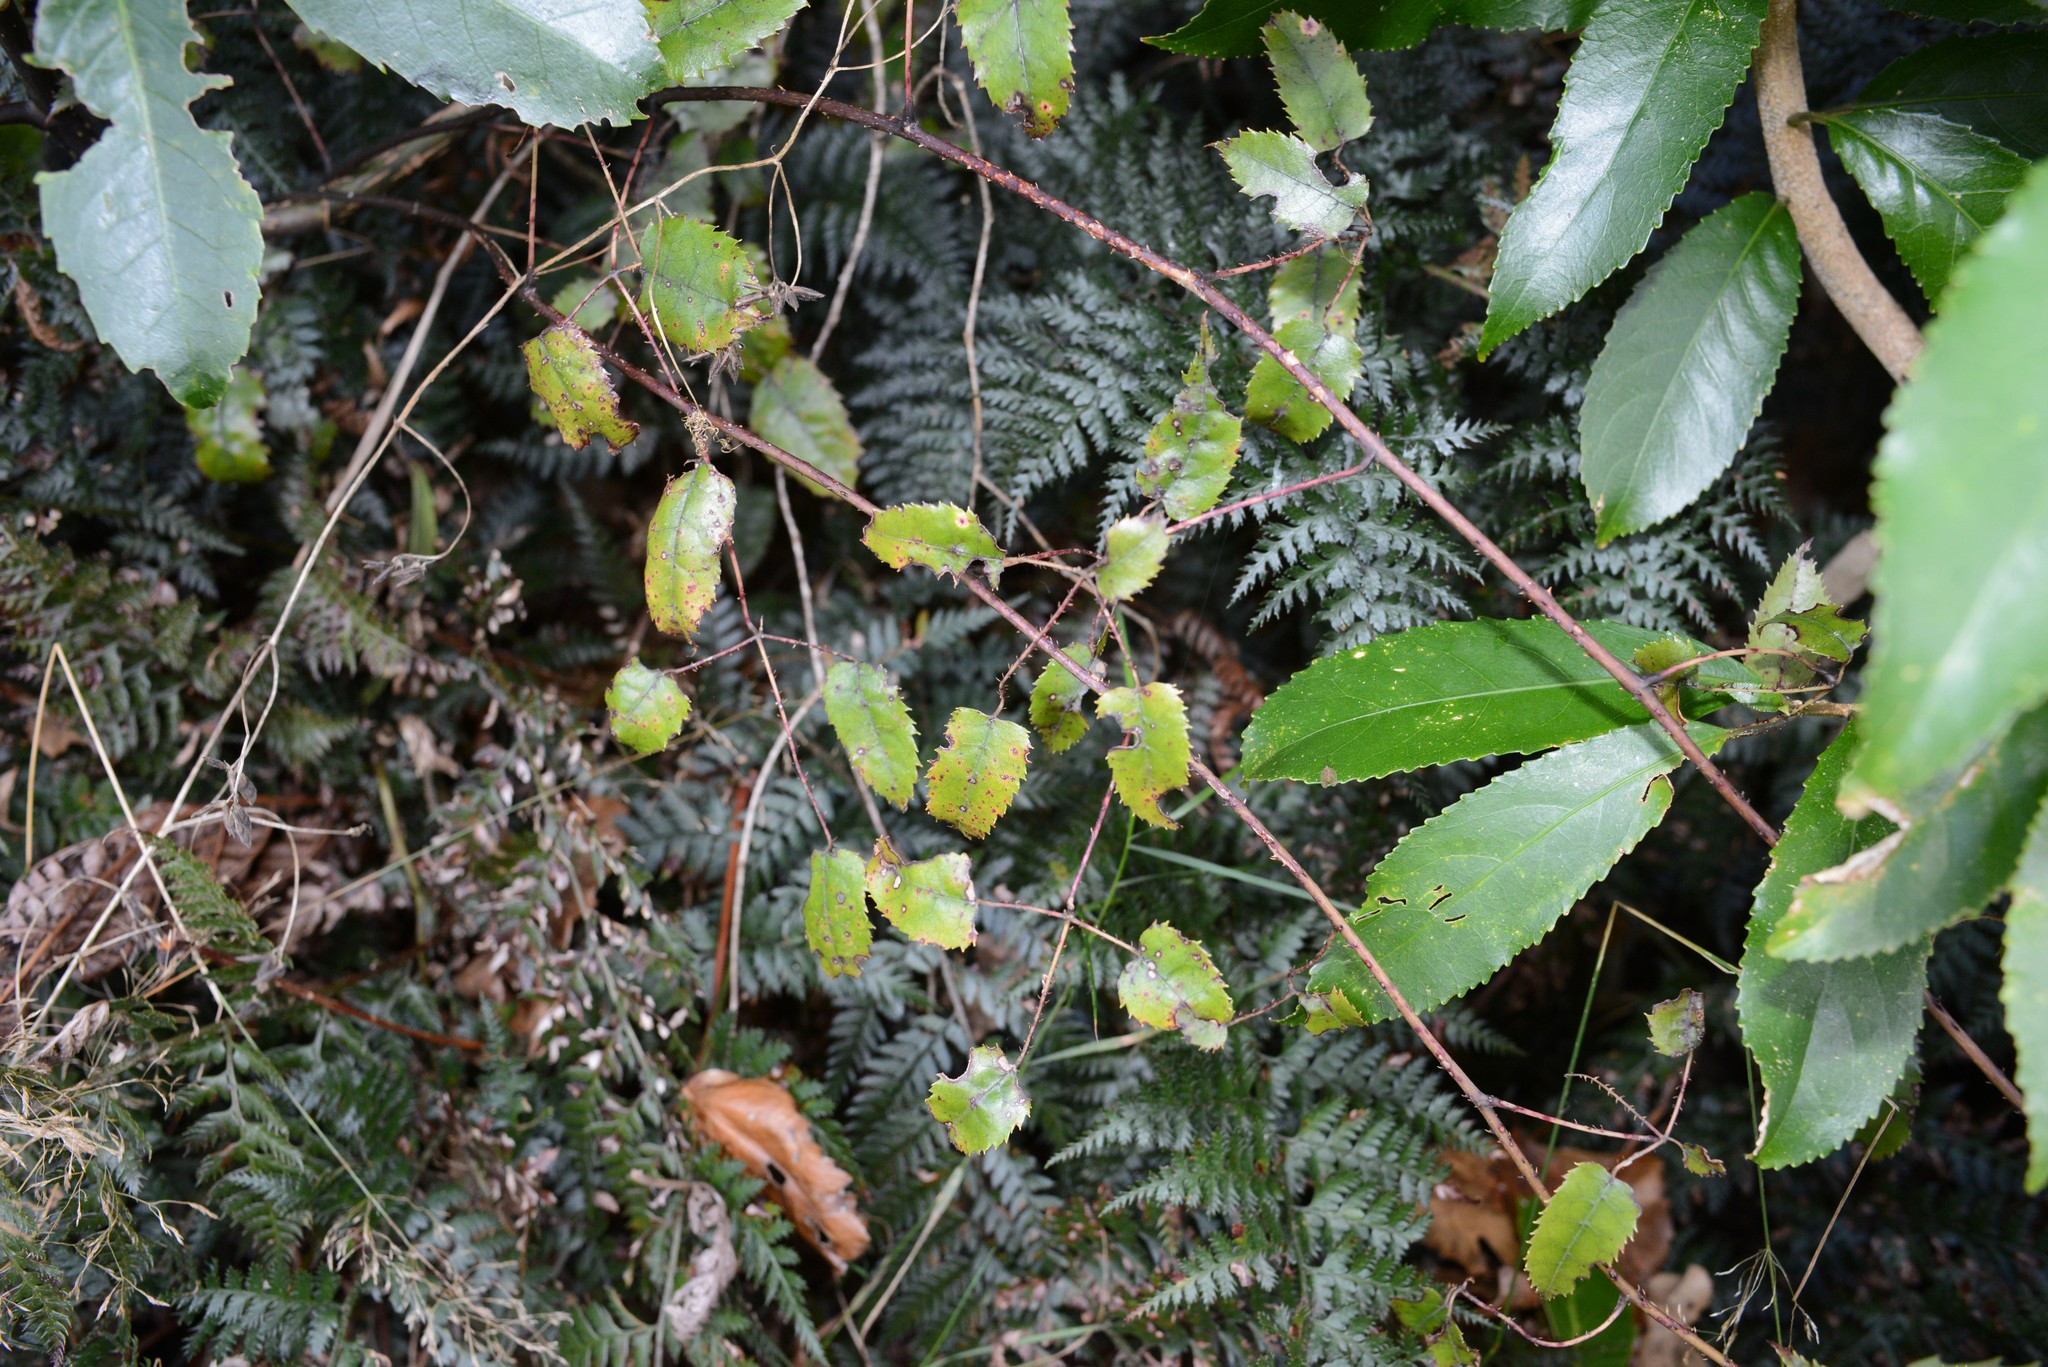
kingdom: Plantae
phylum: Tracheophyta
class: Magnoliopsida
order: Rosales
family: Rosaceae
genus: Rubus
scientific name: Rubus cissoides
